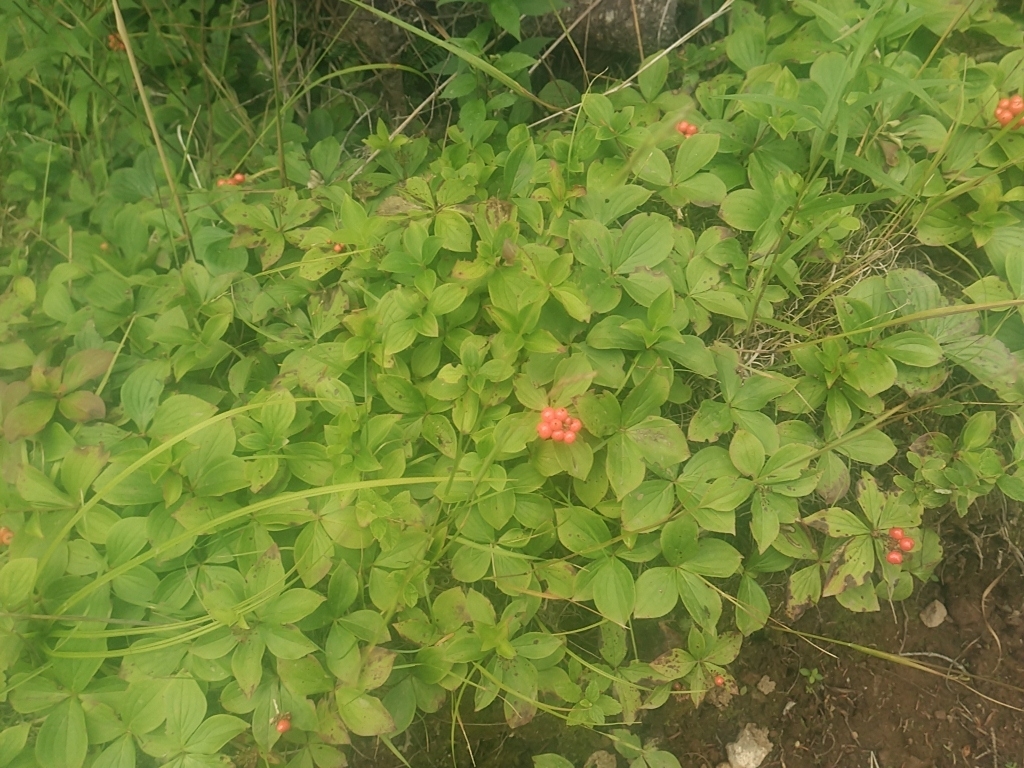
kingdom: Plantae
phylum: Tracheophyta
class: Magnoliopsida
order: Cornales
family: Cornaceae
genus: Cornus
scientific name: Cornus canadensis
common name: Creeping dogwood
